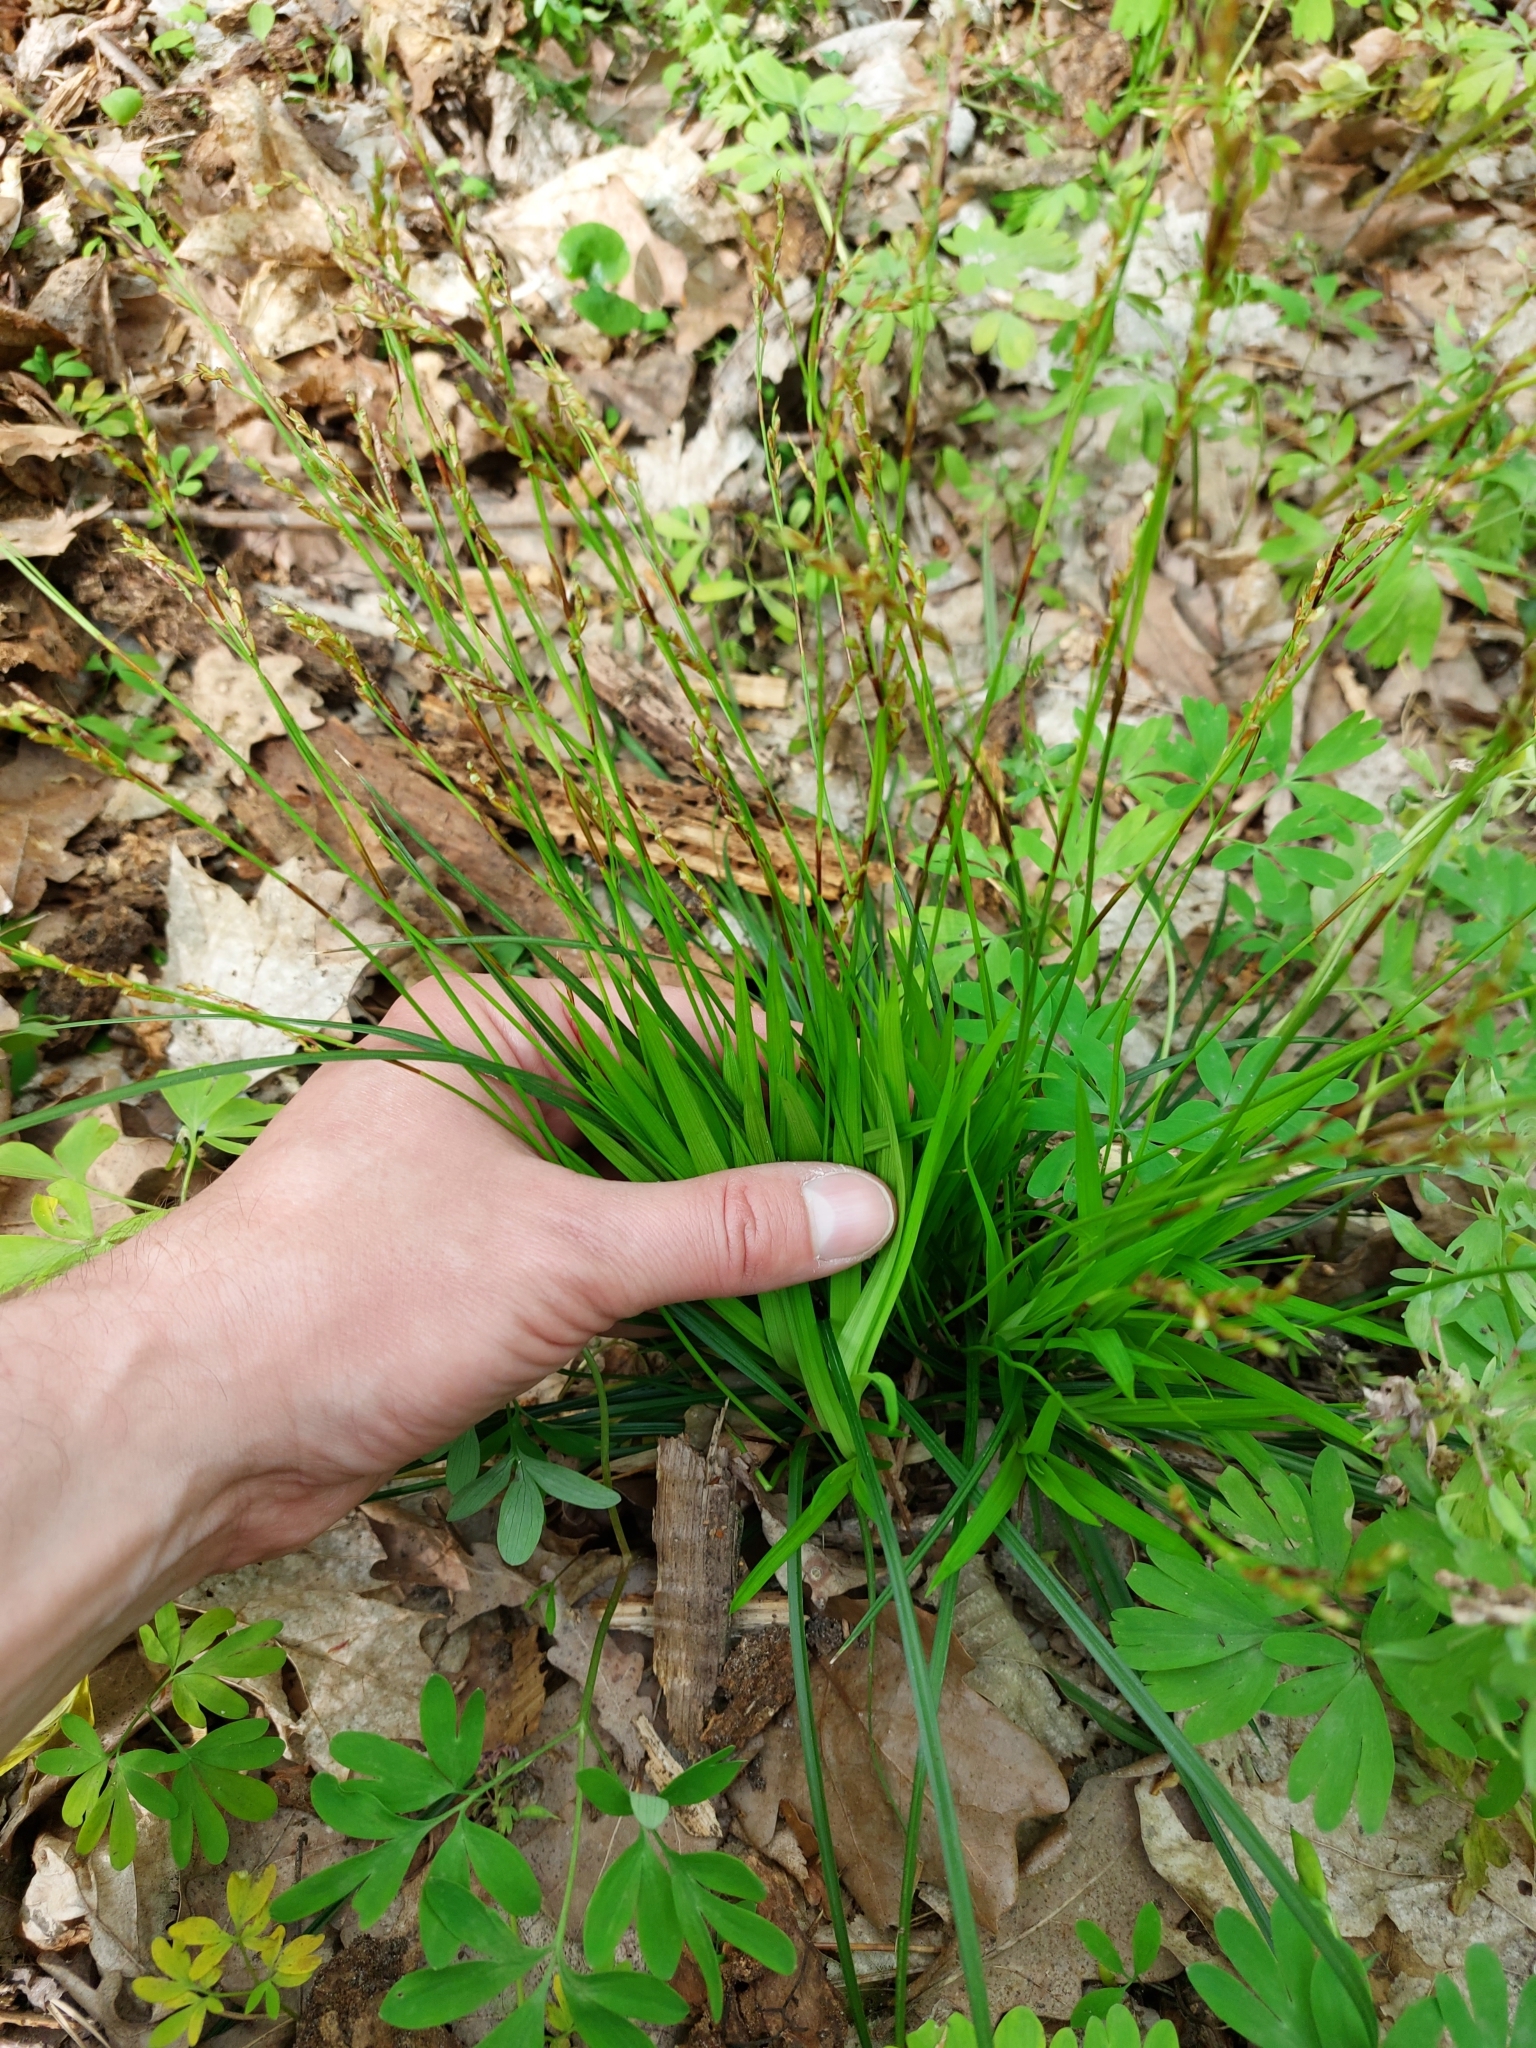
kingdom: Plantae
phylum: Tracheophyta
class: Liliopsida
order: Poales
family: Cyperaceae
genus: Carex
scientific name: Carex digitata
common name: Fingered sedge
